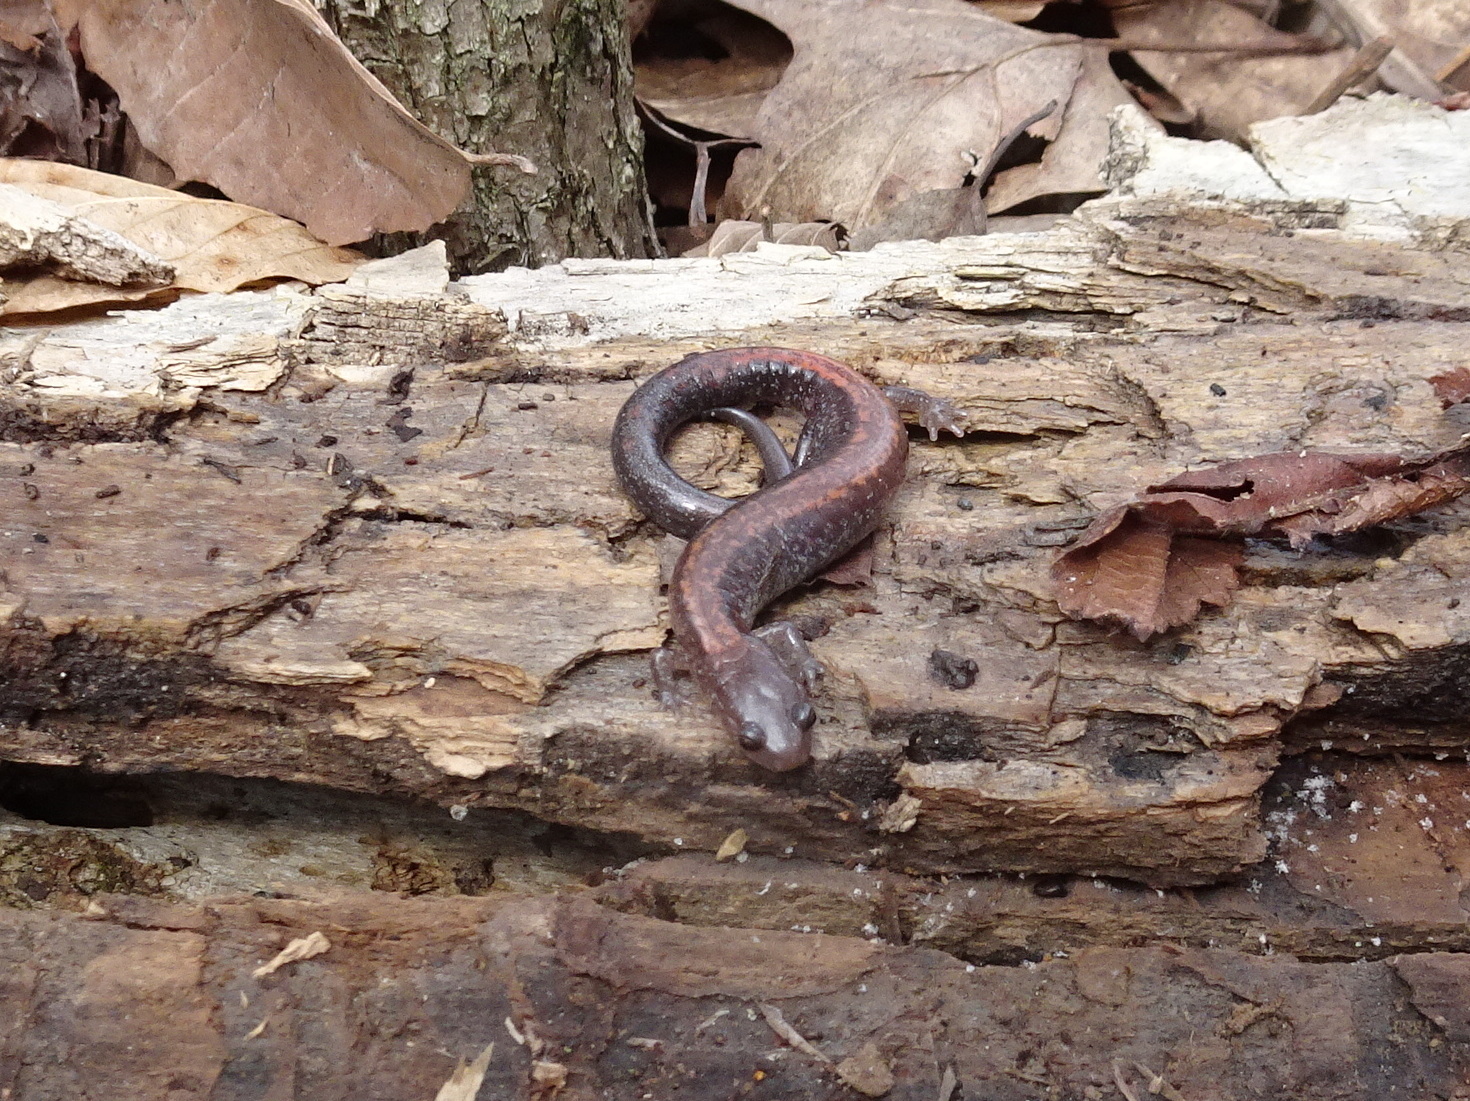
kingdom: Animalia
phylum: Chordata
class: Amphibia
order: Caudata
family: Plethodontidae
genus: Plethodon
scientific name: Plethodon cinereus
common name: Redback salamander
